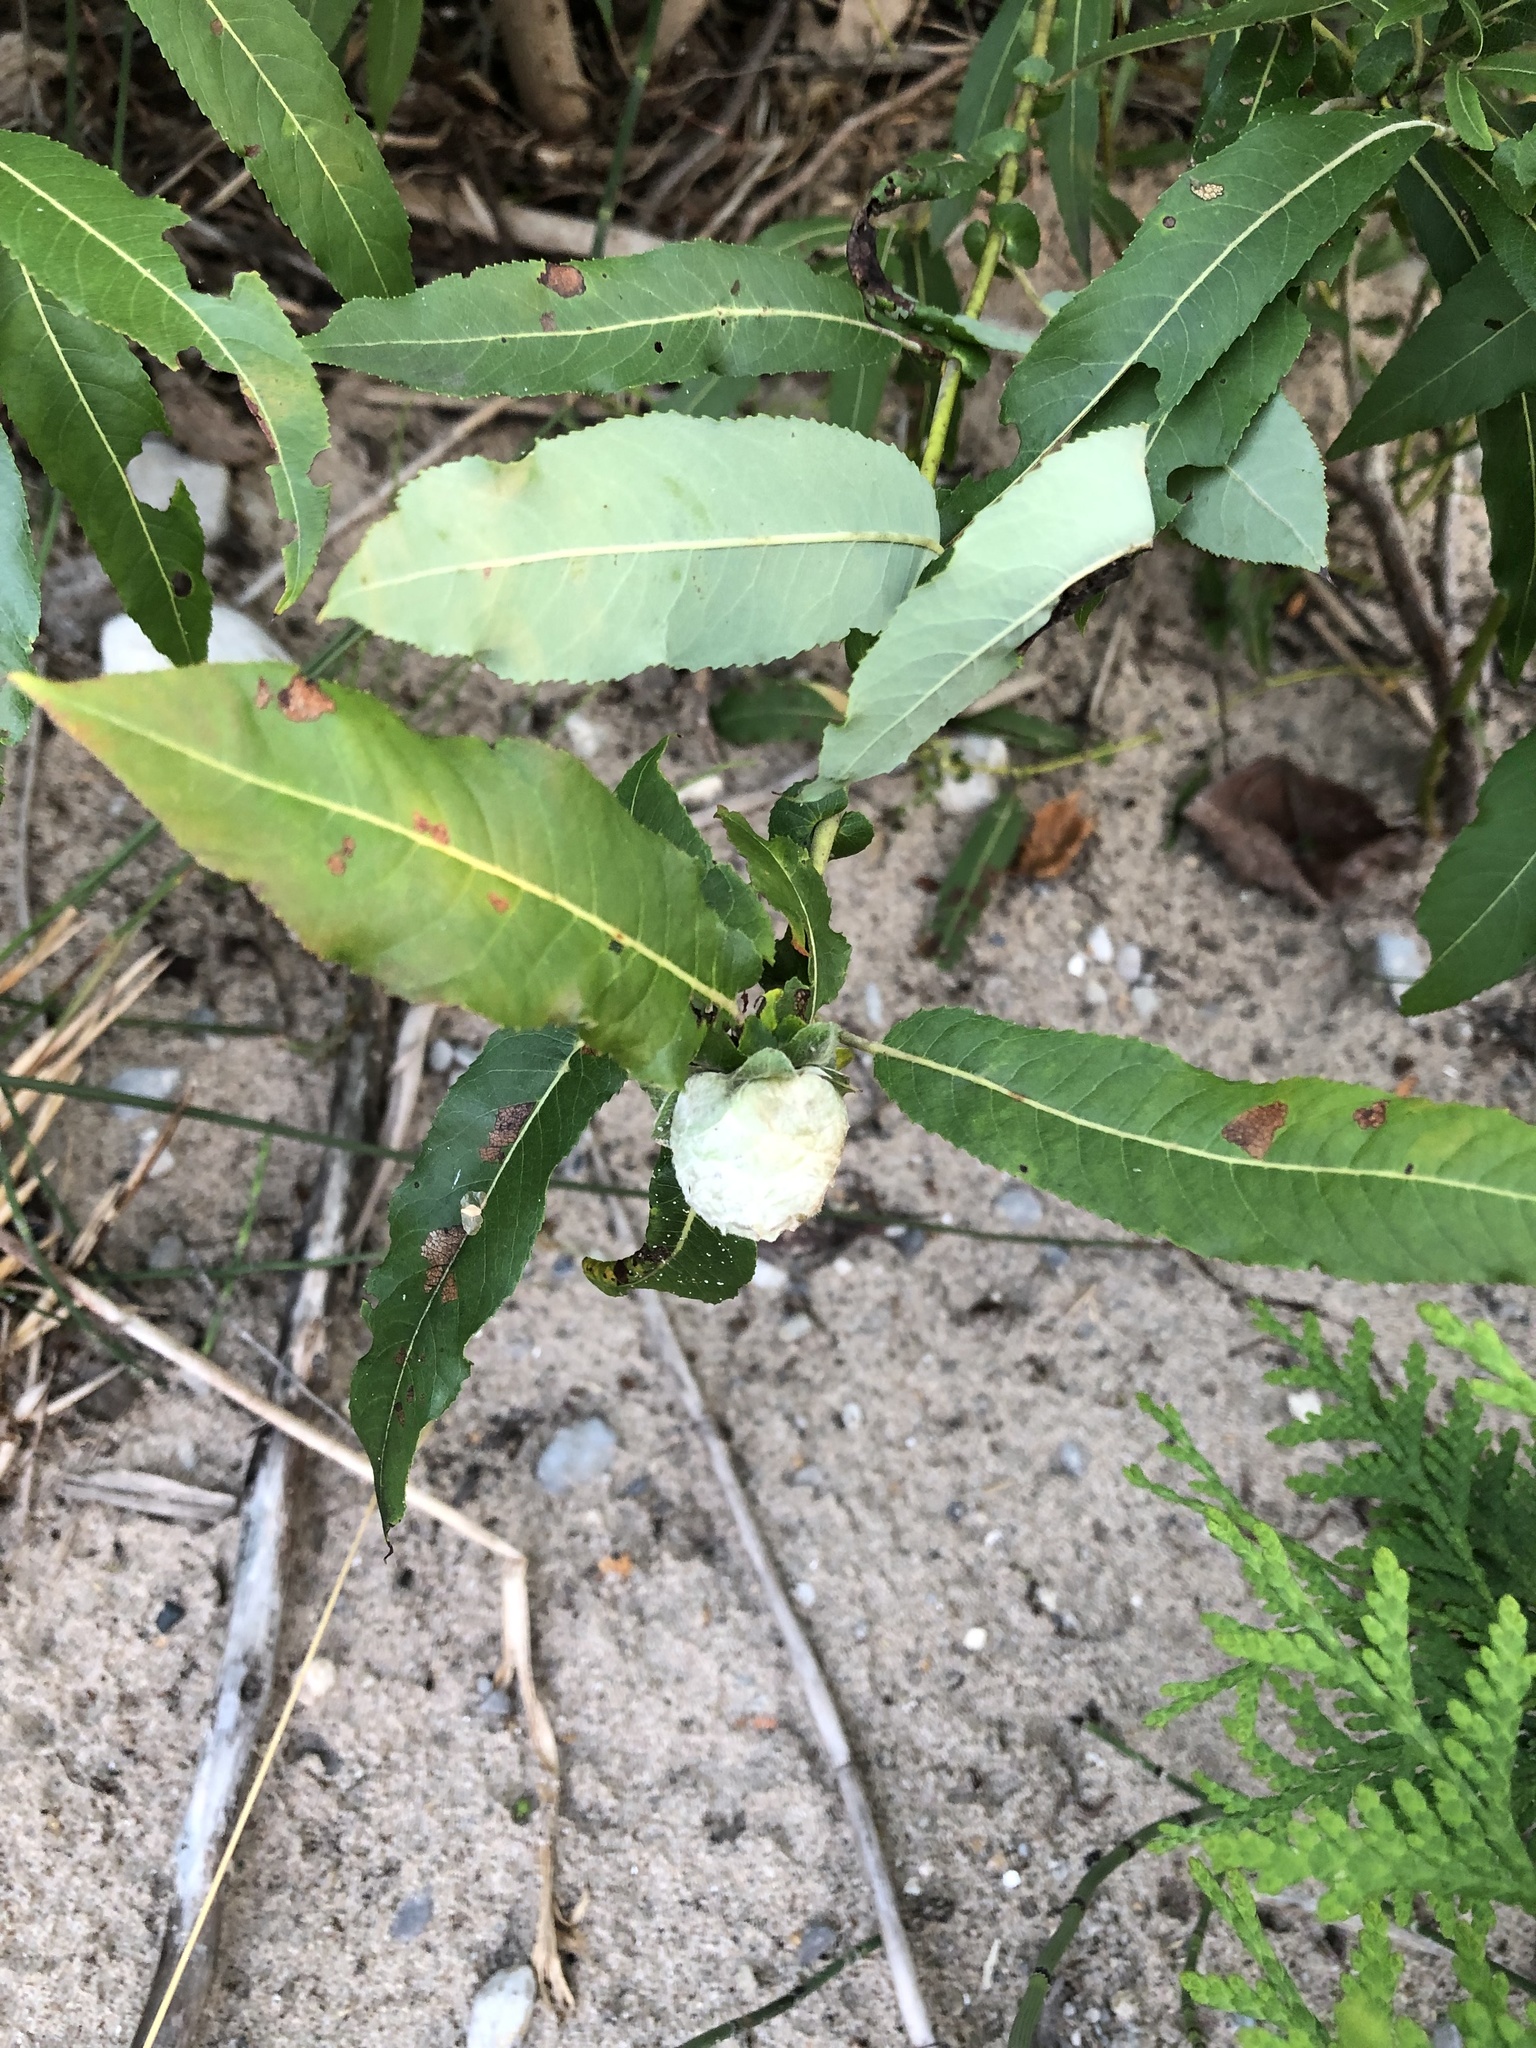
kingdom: Animalia
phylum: Arthropoda
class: Insecta
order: Diptera
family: Cecidomyiidae
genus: Rabdophaga
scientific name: Rabdophaga strobiloides
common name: Willow pinecone gall midge
